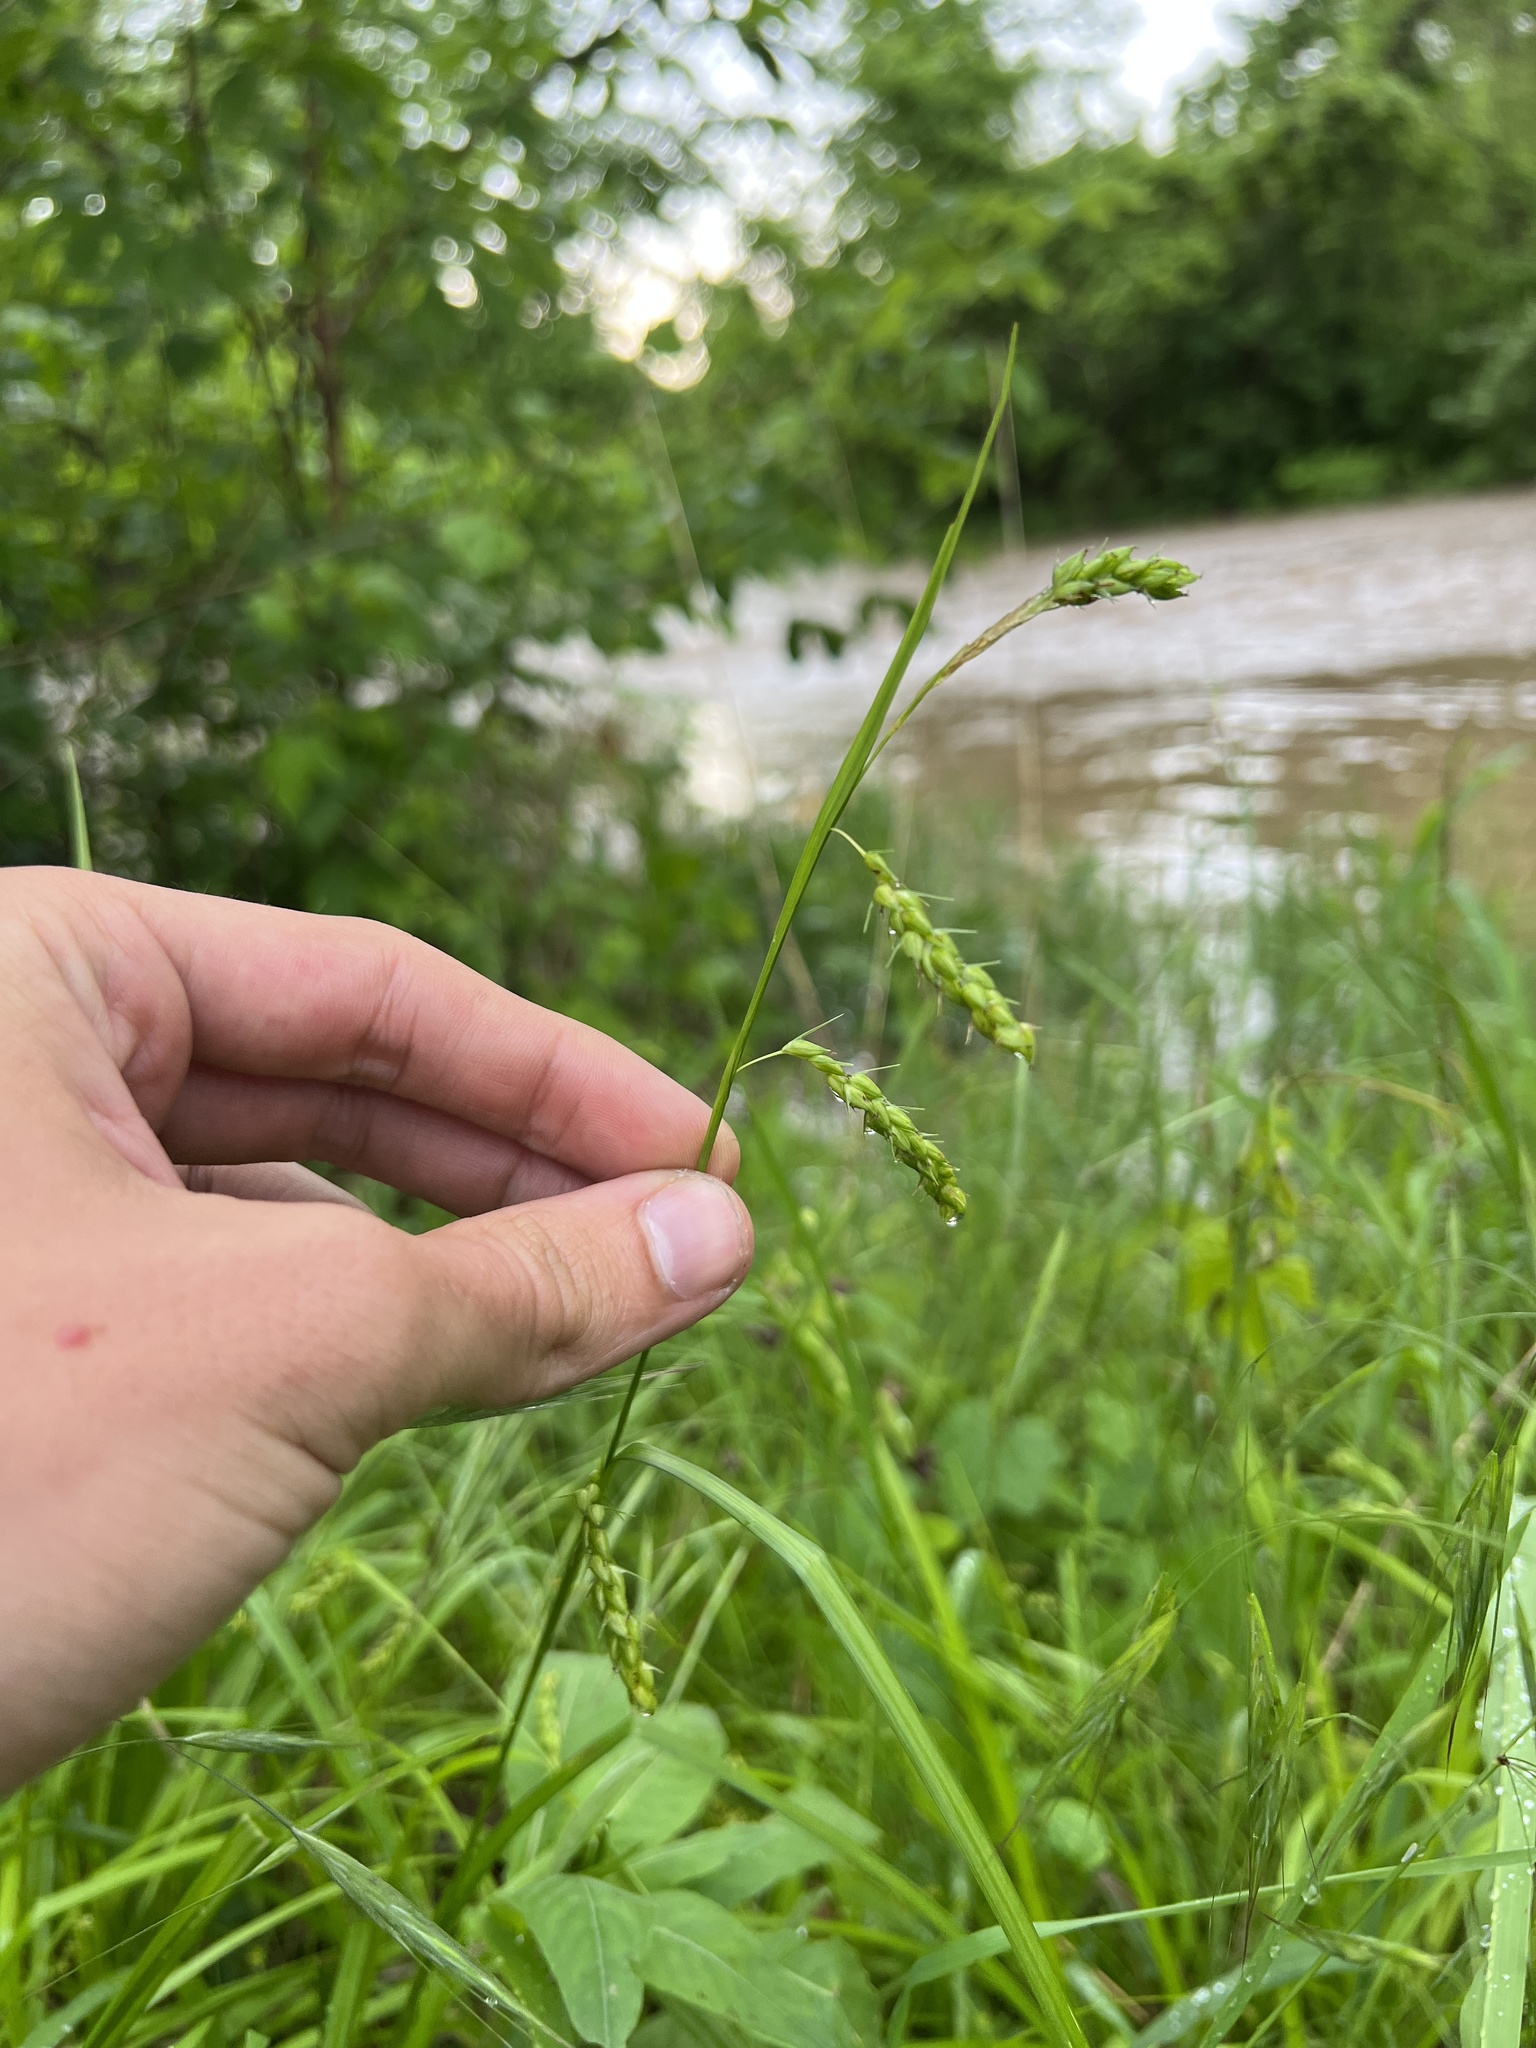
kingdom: Plantae
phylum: Tracheophyta
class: Liliopsida
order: Poales
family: Cyperaceae
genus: Carex
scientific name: Carex davisii
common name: Davis' sedge
